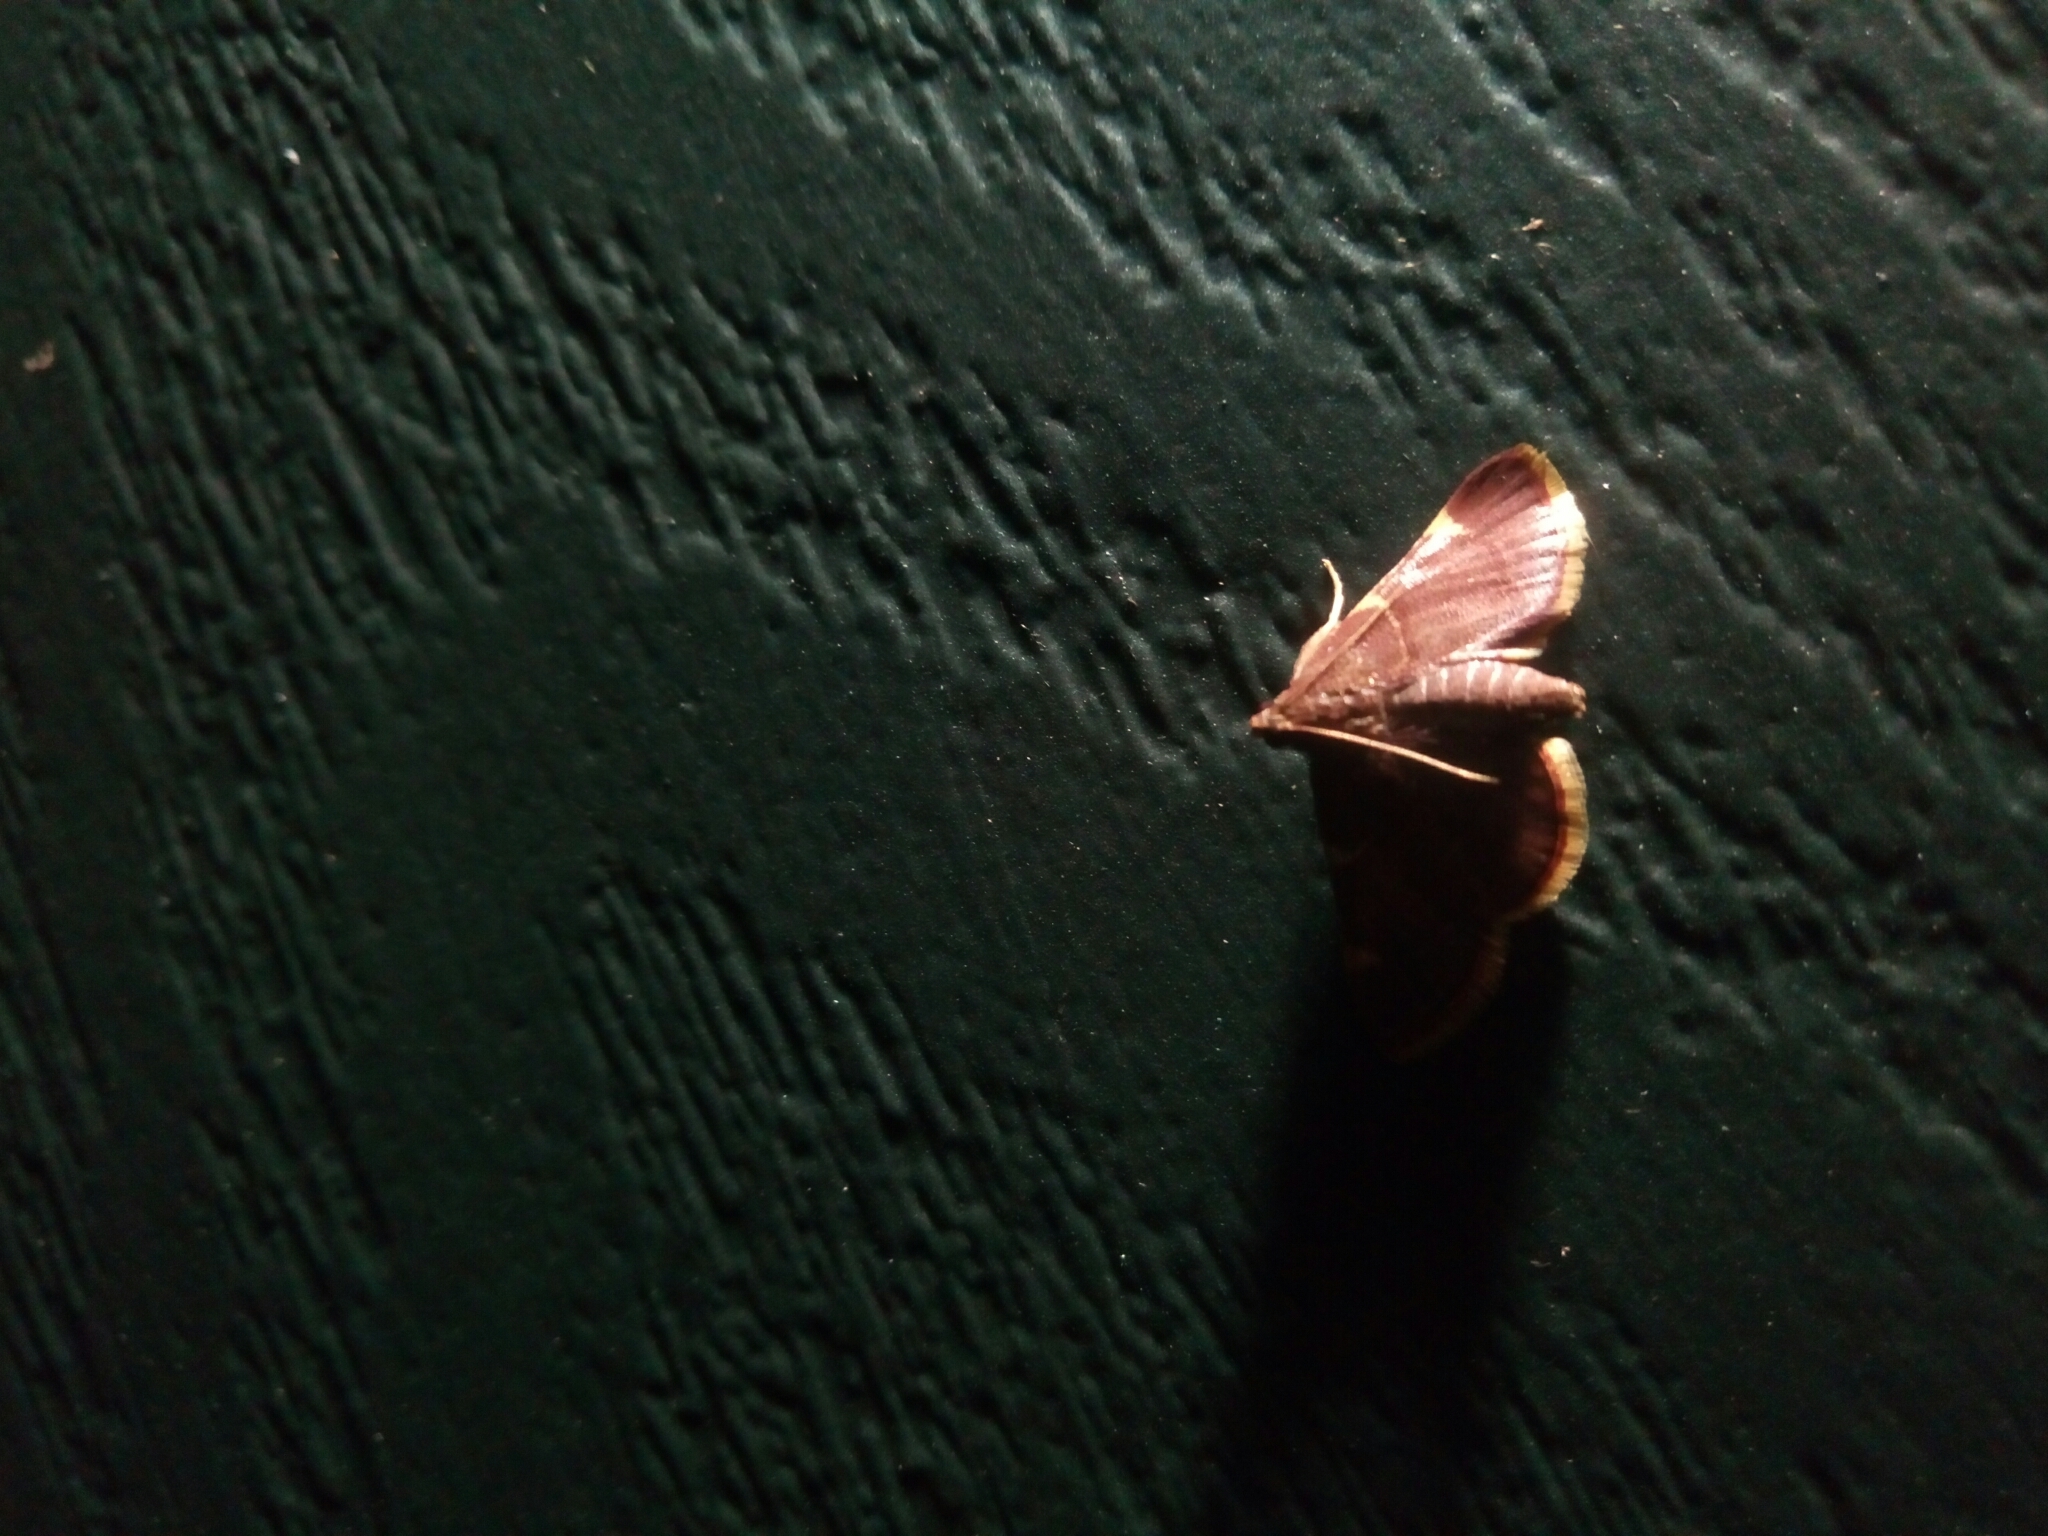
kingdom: Animalia
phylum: Arthropoda
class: Insecta
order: Lepidoptera
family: Pyralidae
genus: Hypsopygia
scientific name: Hypsopygia olinalis
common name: Yellow-fringed dolichomia moth
